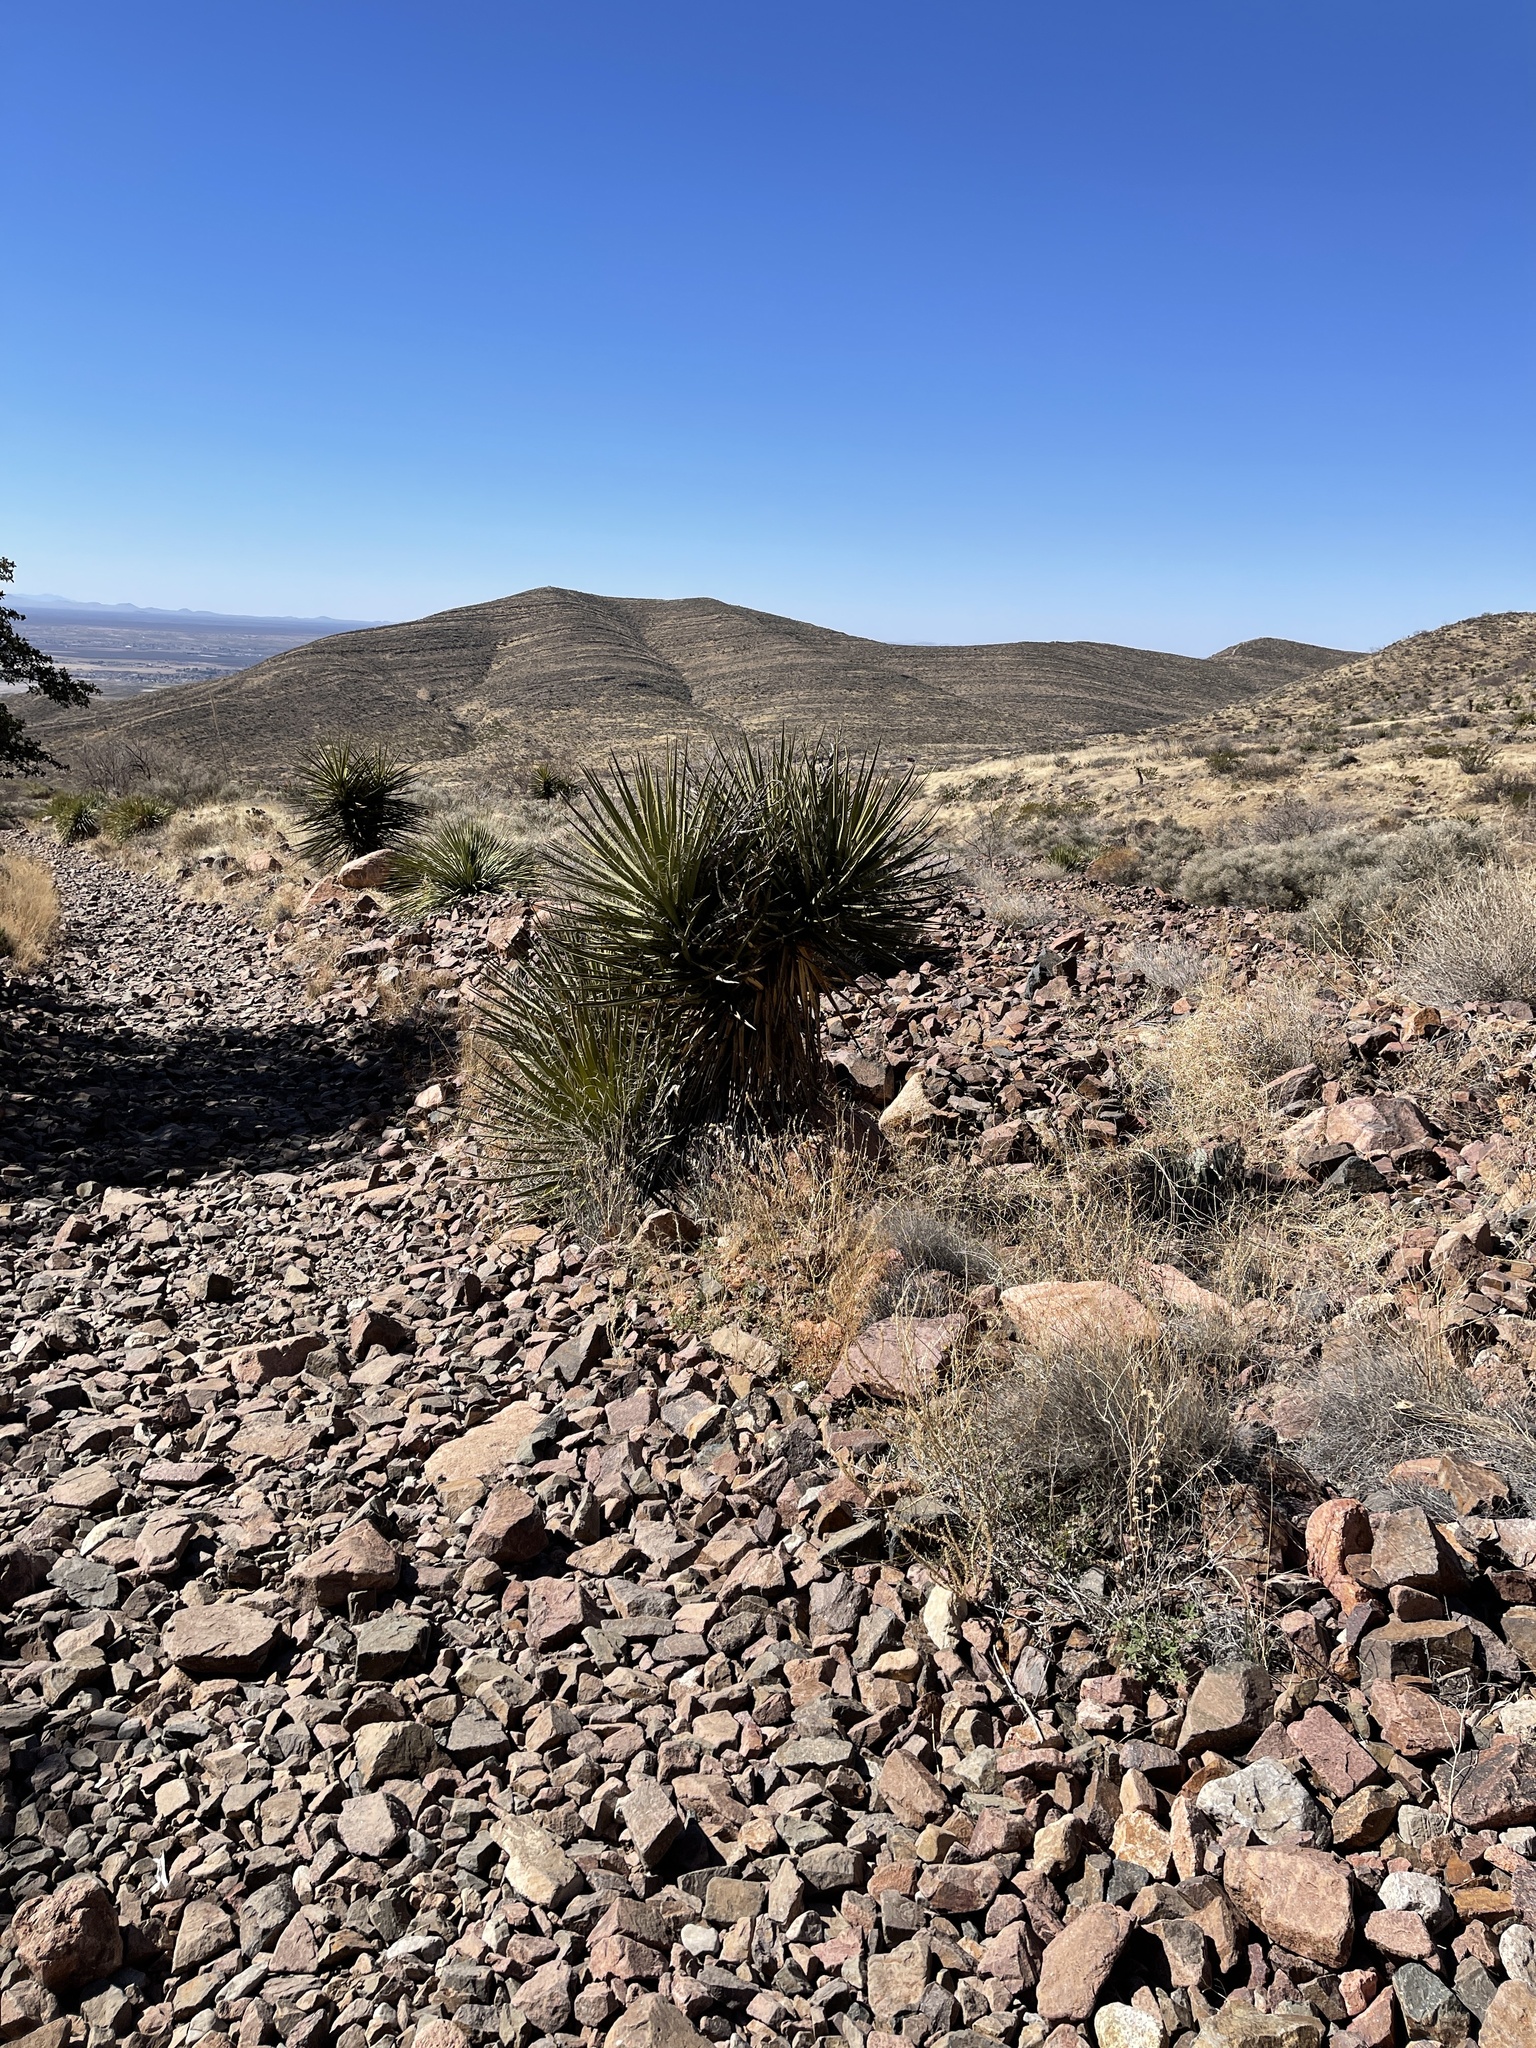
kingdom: Plantae
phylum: Tracheophyta
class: Liliopsida
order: Asparagales
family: Asparagaceae
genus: Yucca
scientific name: Yucca treculiana
